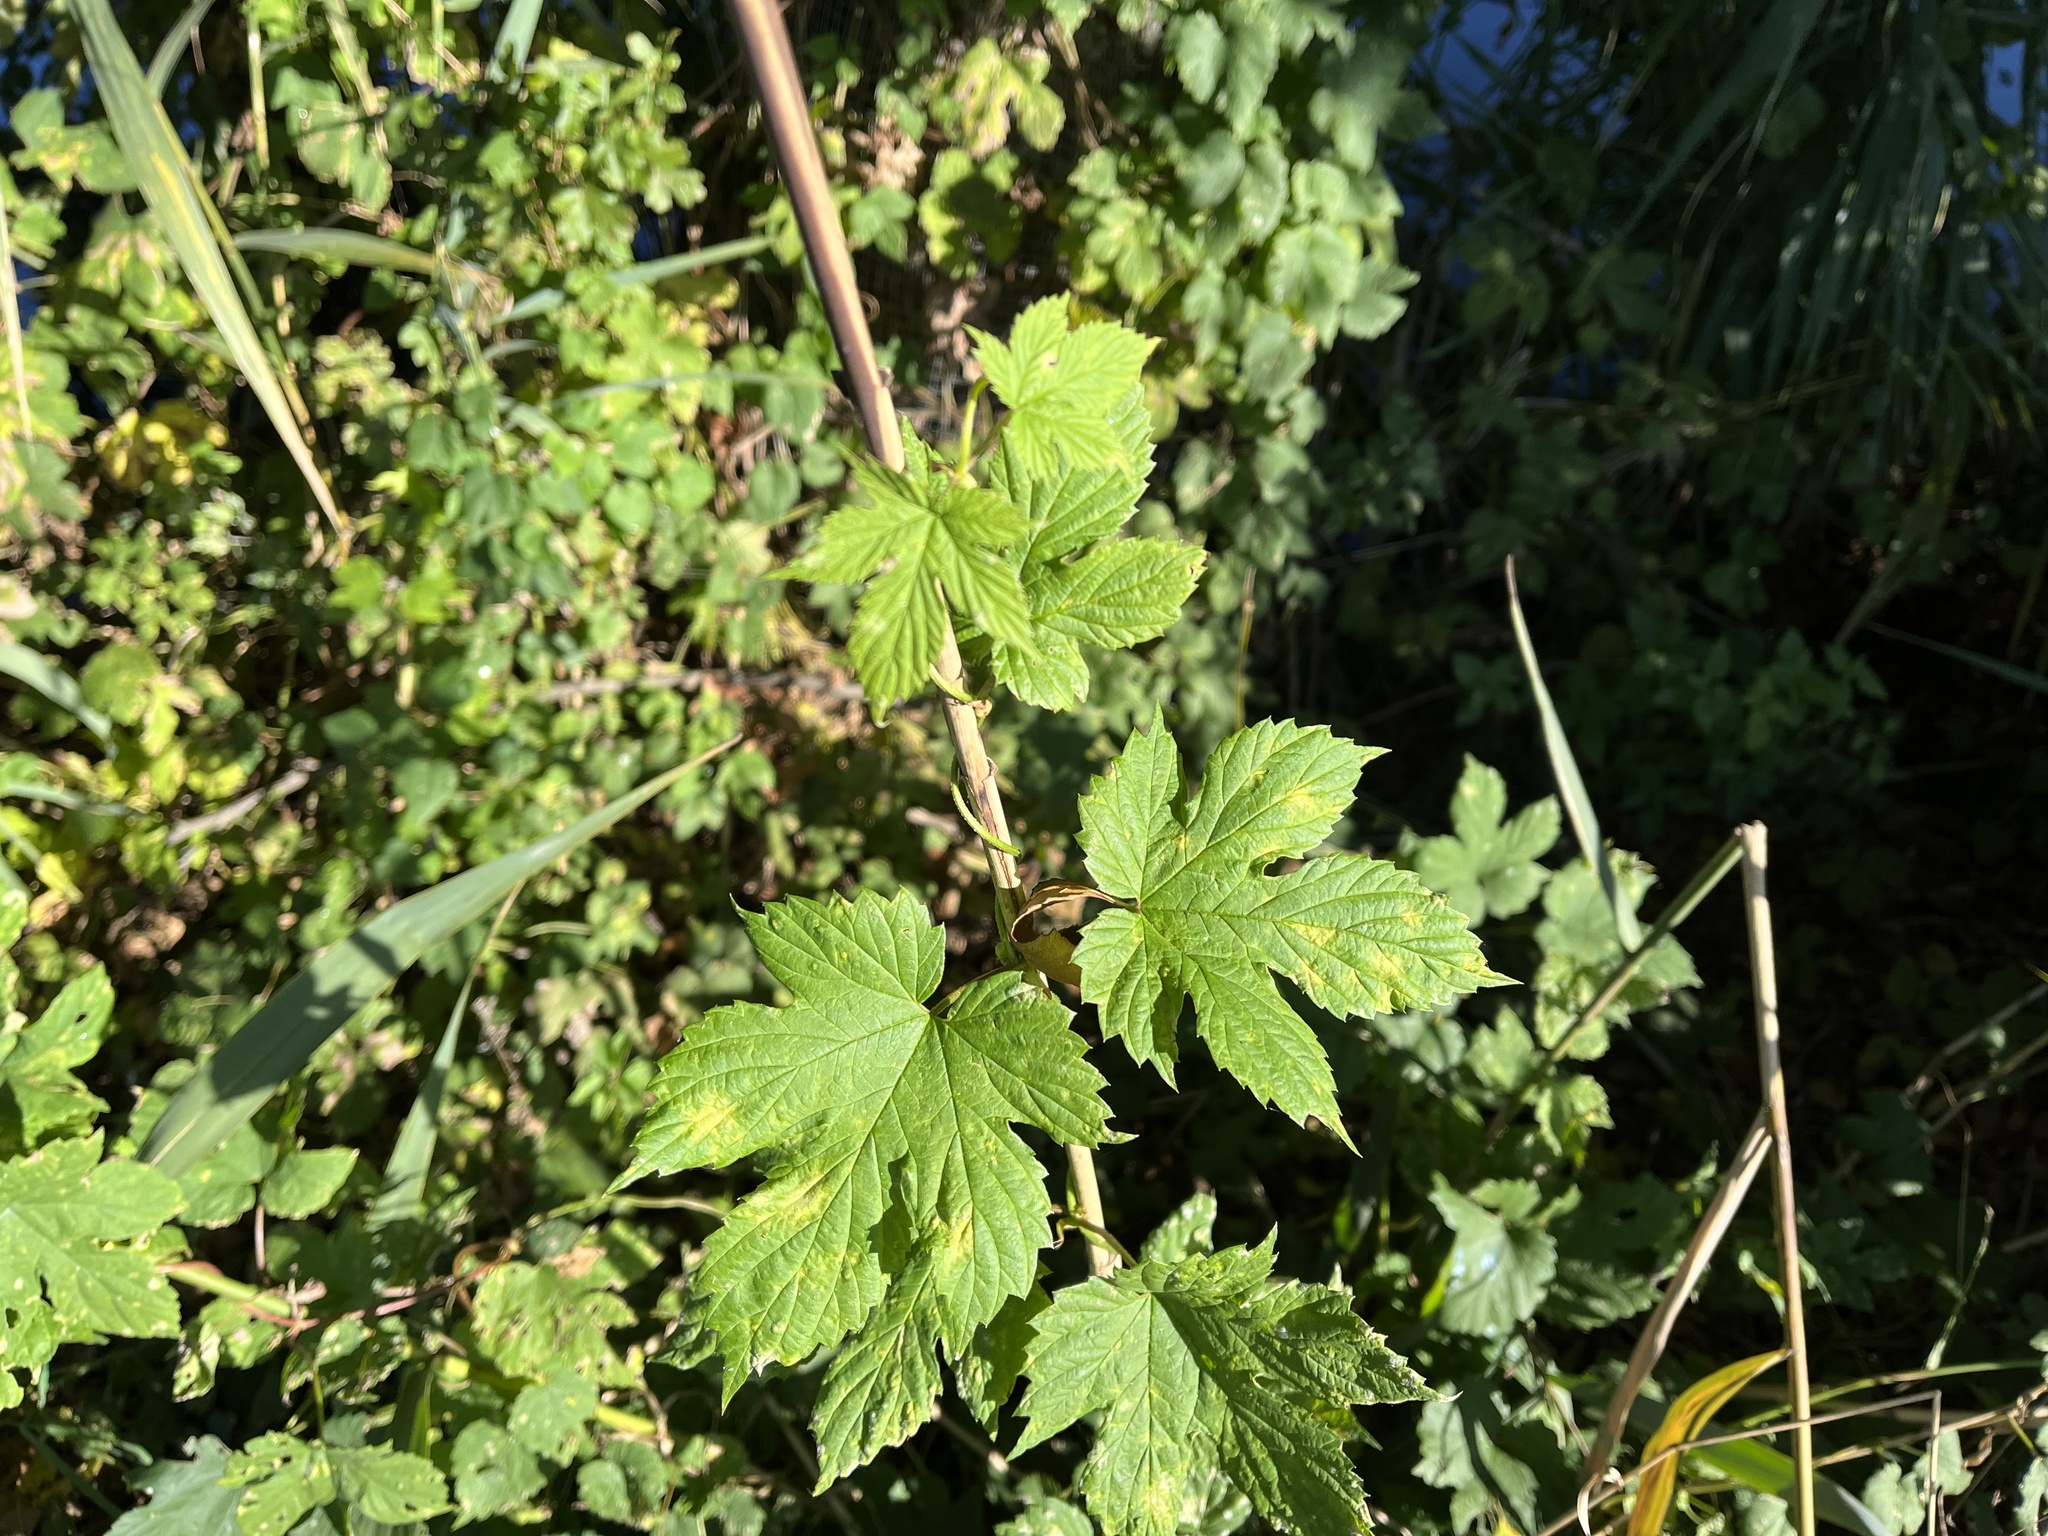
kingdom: Plantae
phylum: Tracheophyta
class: Magnoliopsida
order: Rosales
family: Cannabaceae
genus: Humulus
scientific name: Humulus lupulus
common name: Hop
